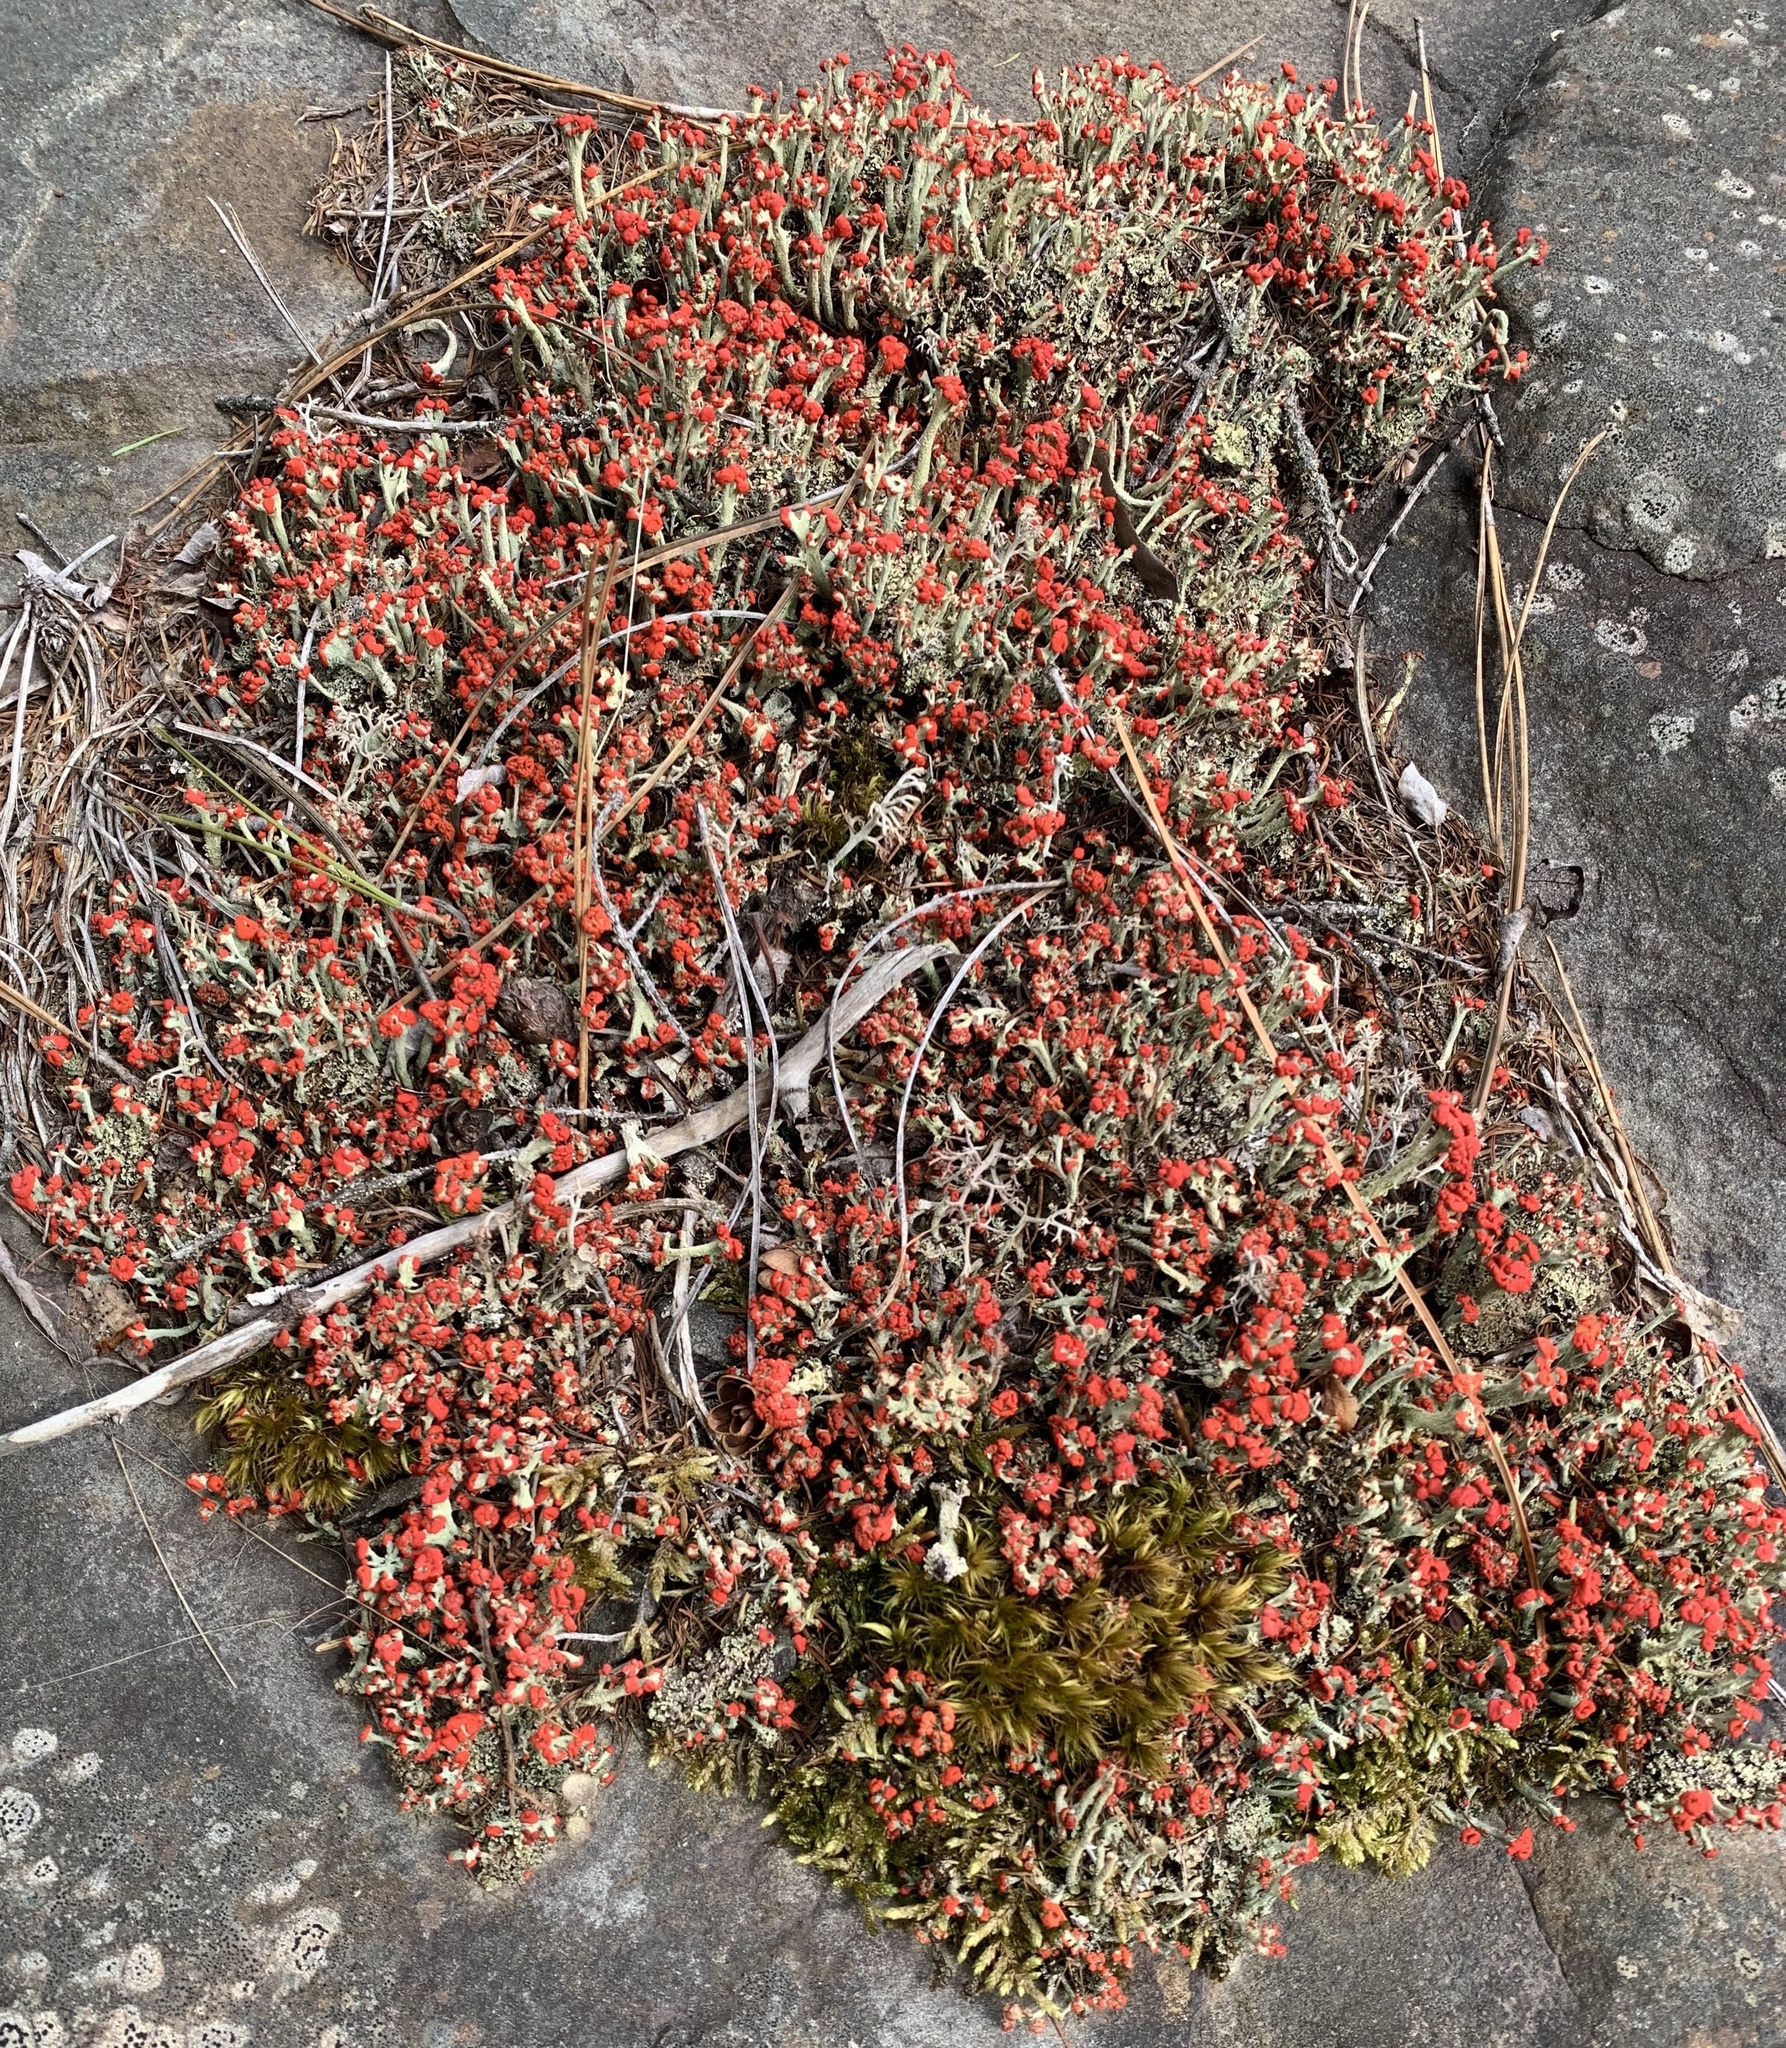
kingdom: Fungi
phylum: Ascomycota
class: Lecanoromycetes
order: Lecanorales
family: Cladoniaceae
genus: Cladonia
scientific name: Cladonia cristatella
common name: British soldier lichen
